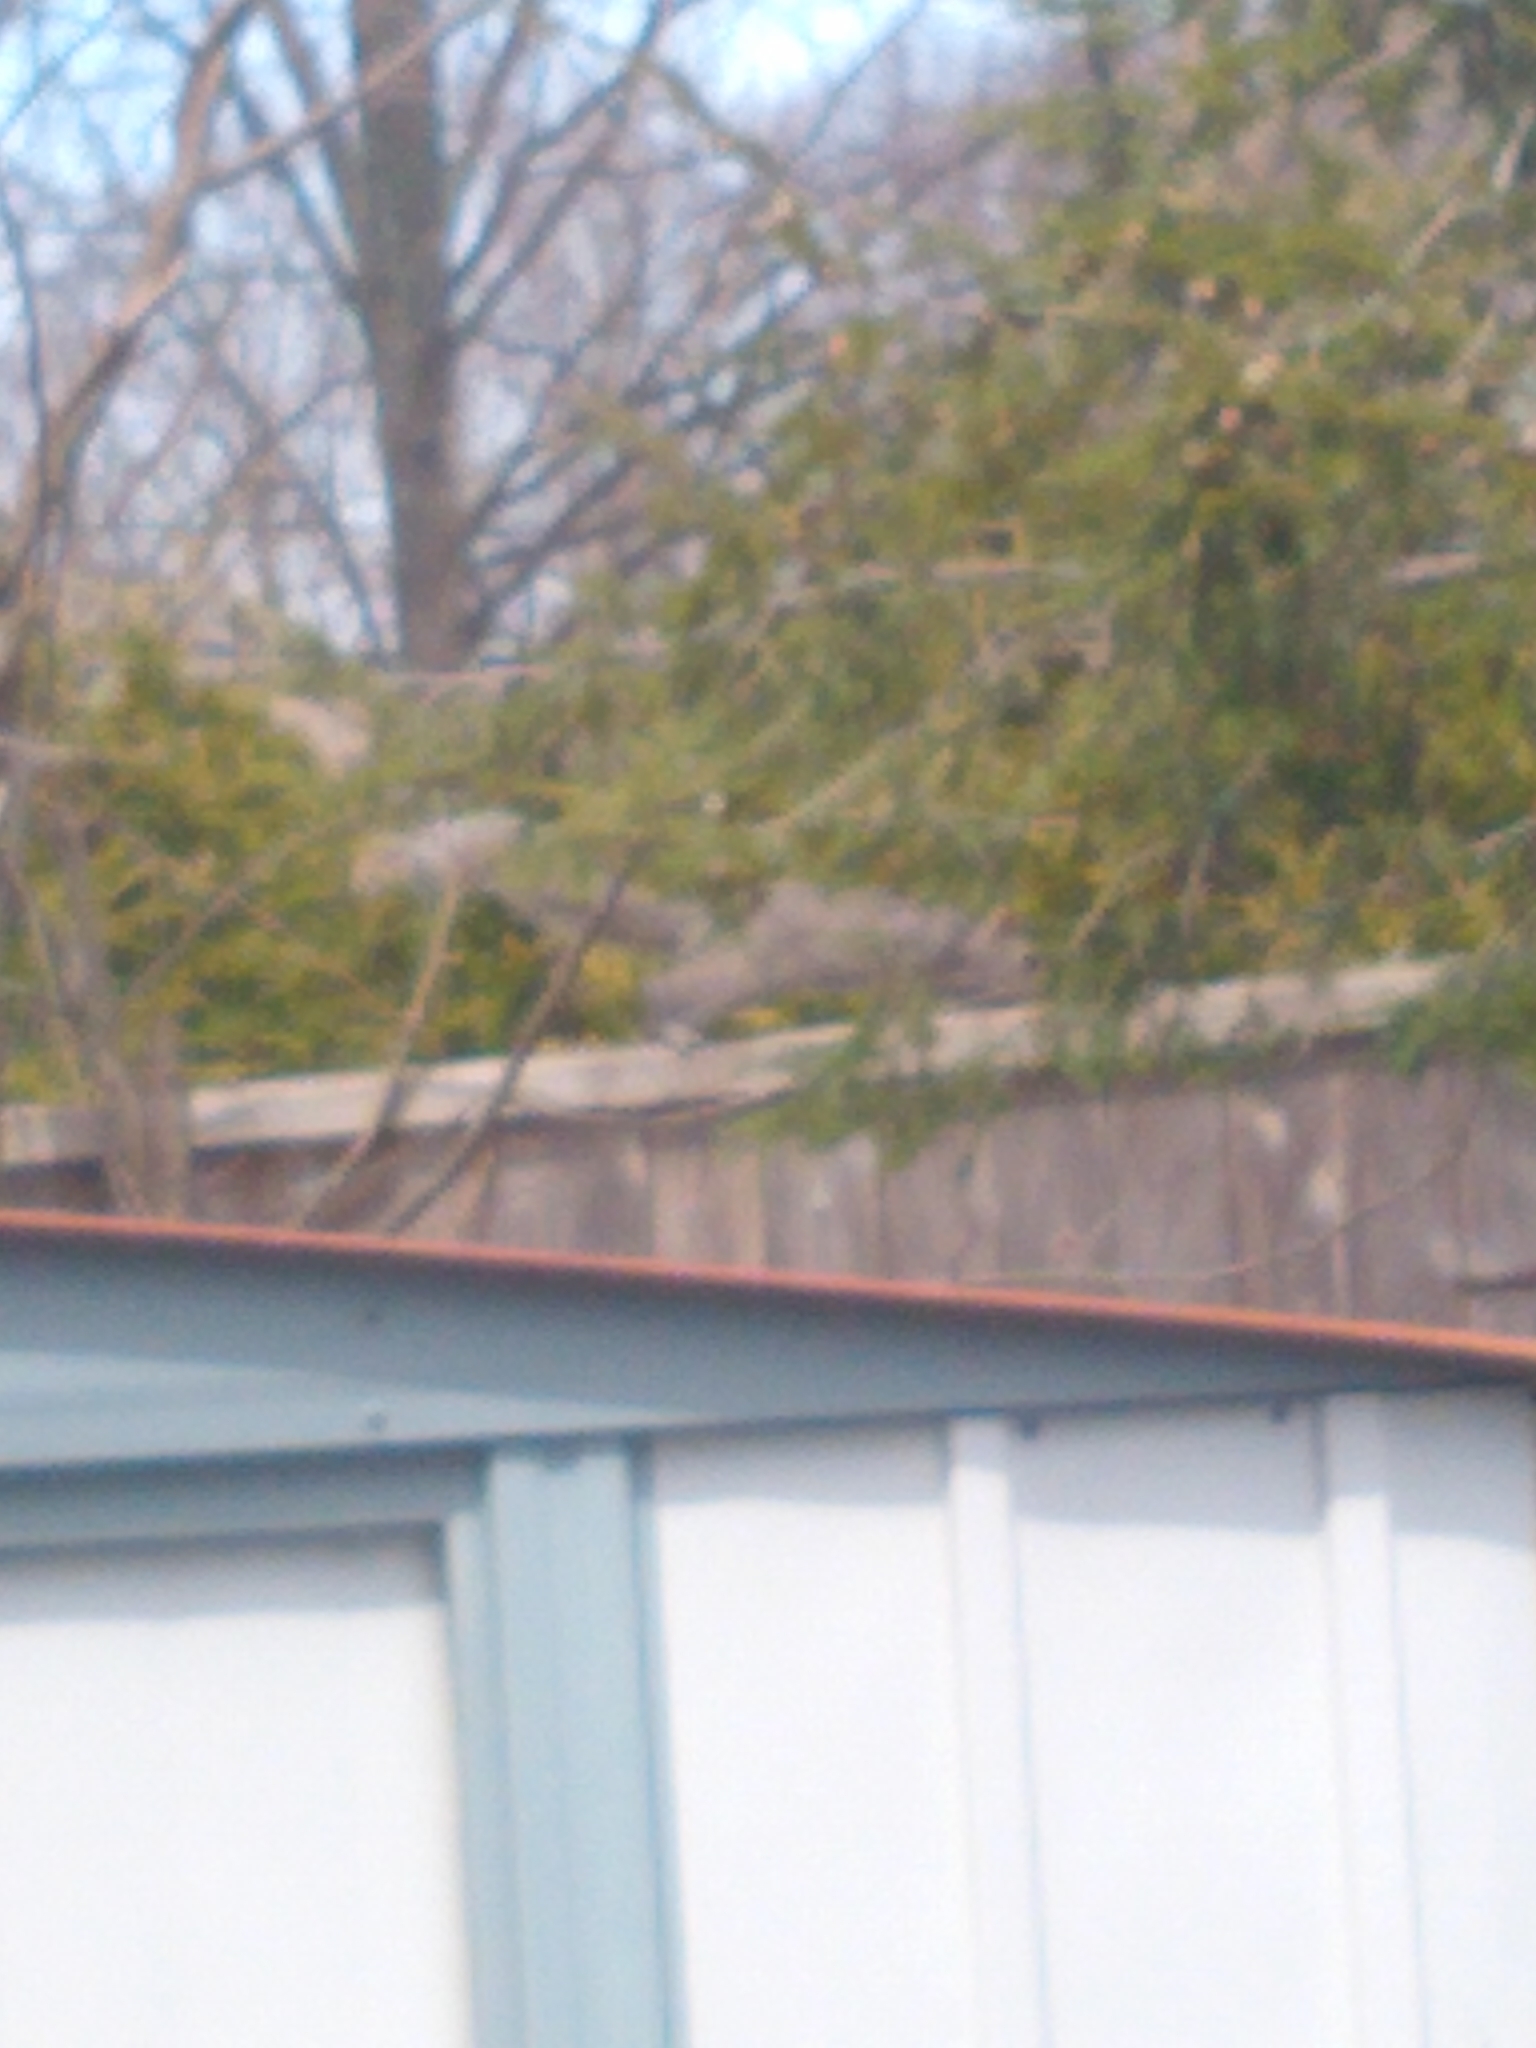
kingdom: Animalia
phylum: Chordata
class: Mammalia
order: Rodentia
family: Sciuridae
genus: Sciurus
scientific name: Sciurus carolinensis
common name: Eastern gray squirrel
